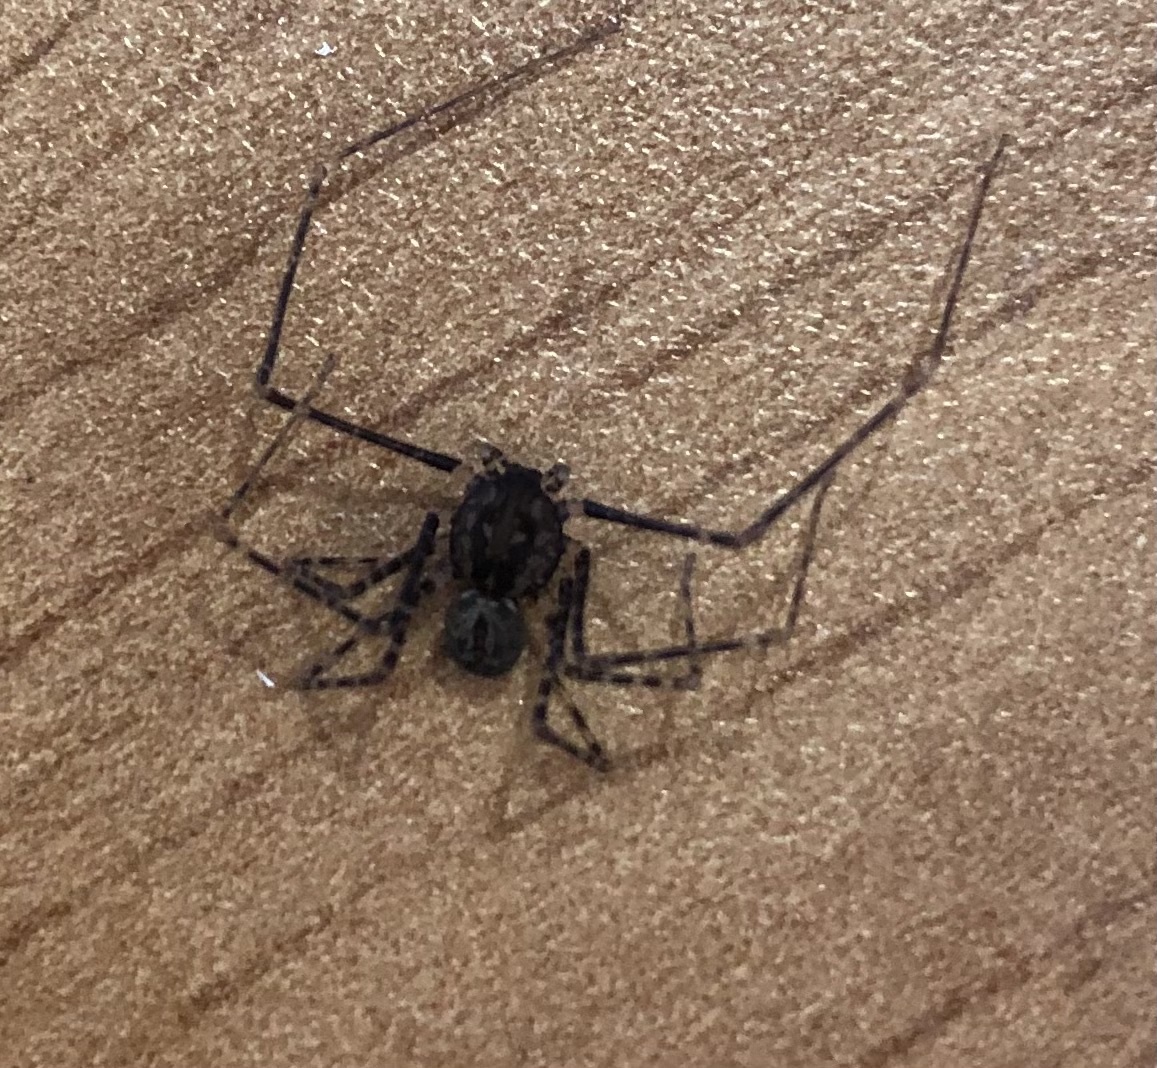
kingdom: Animalia
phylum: Arthropoda
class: Arachnida
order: Araneae
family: Scytodidae
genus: Scytodes
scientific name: Scytodes globula
